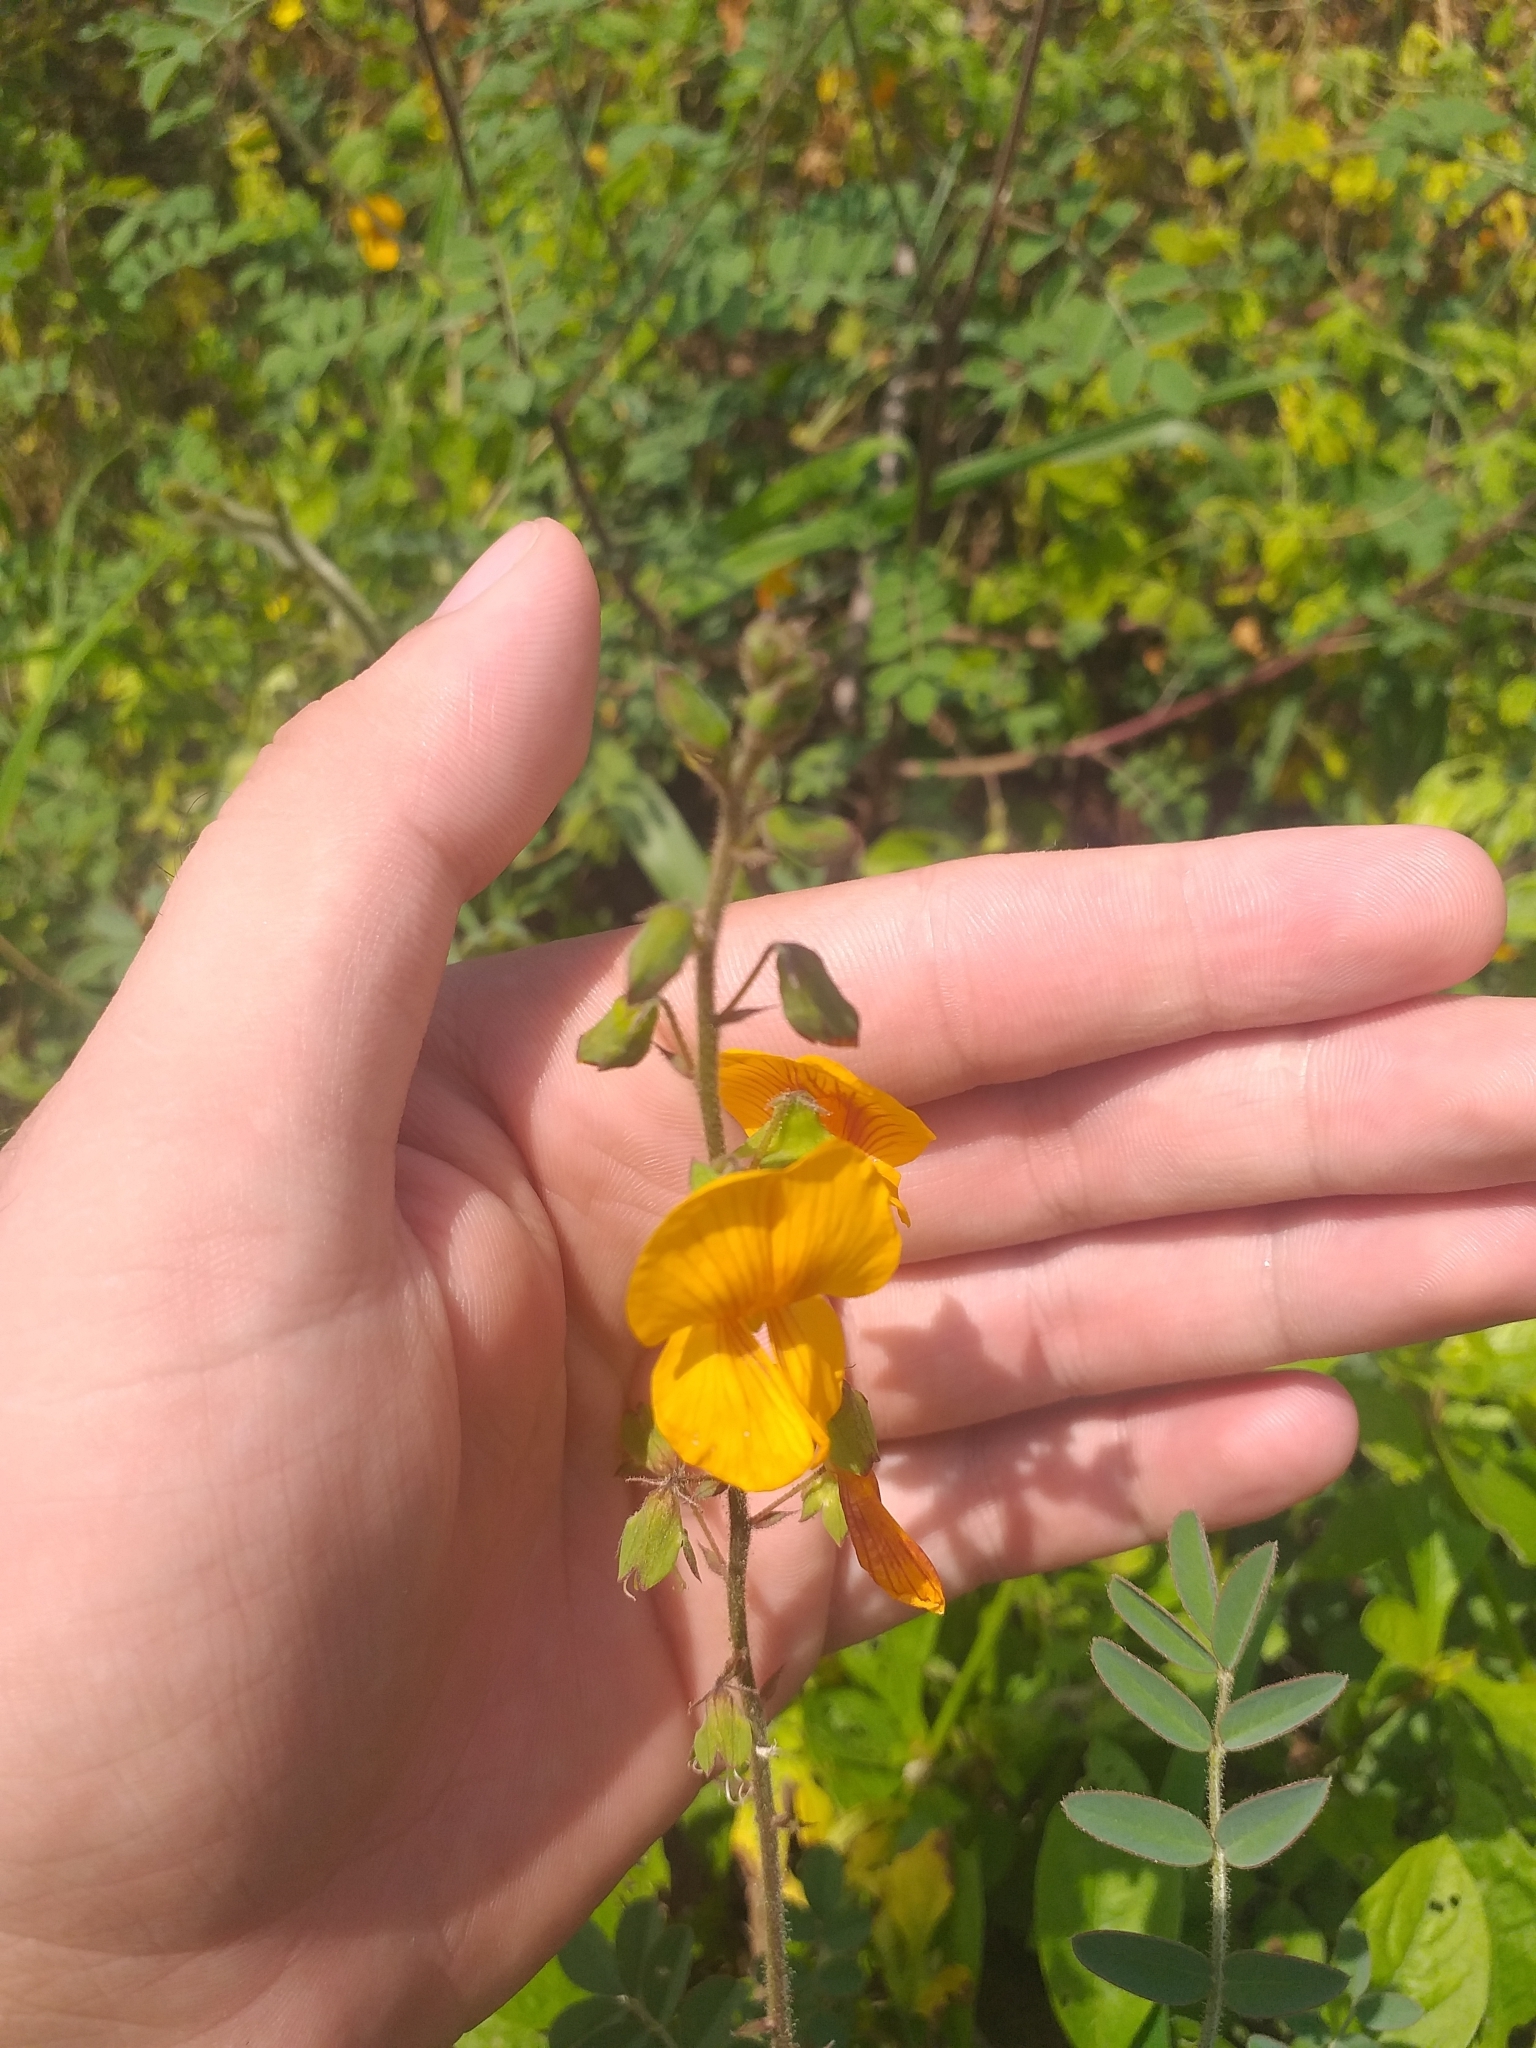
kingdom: Plantae
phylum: Tracheophyta
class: Magnoliopsida
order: Fabales
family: Fabaceae
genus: Discolobium
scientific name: Discolobium hirtum
